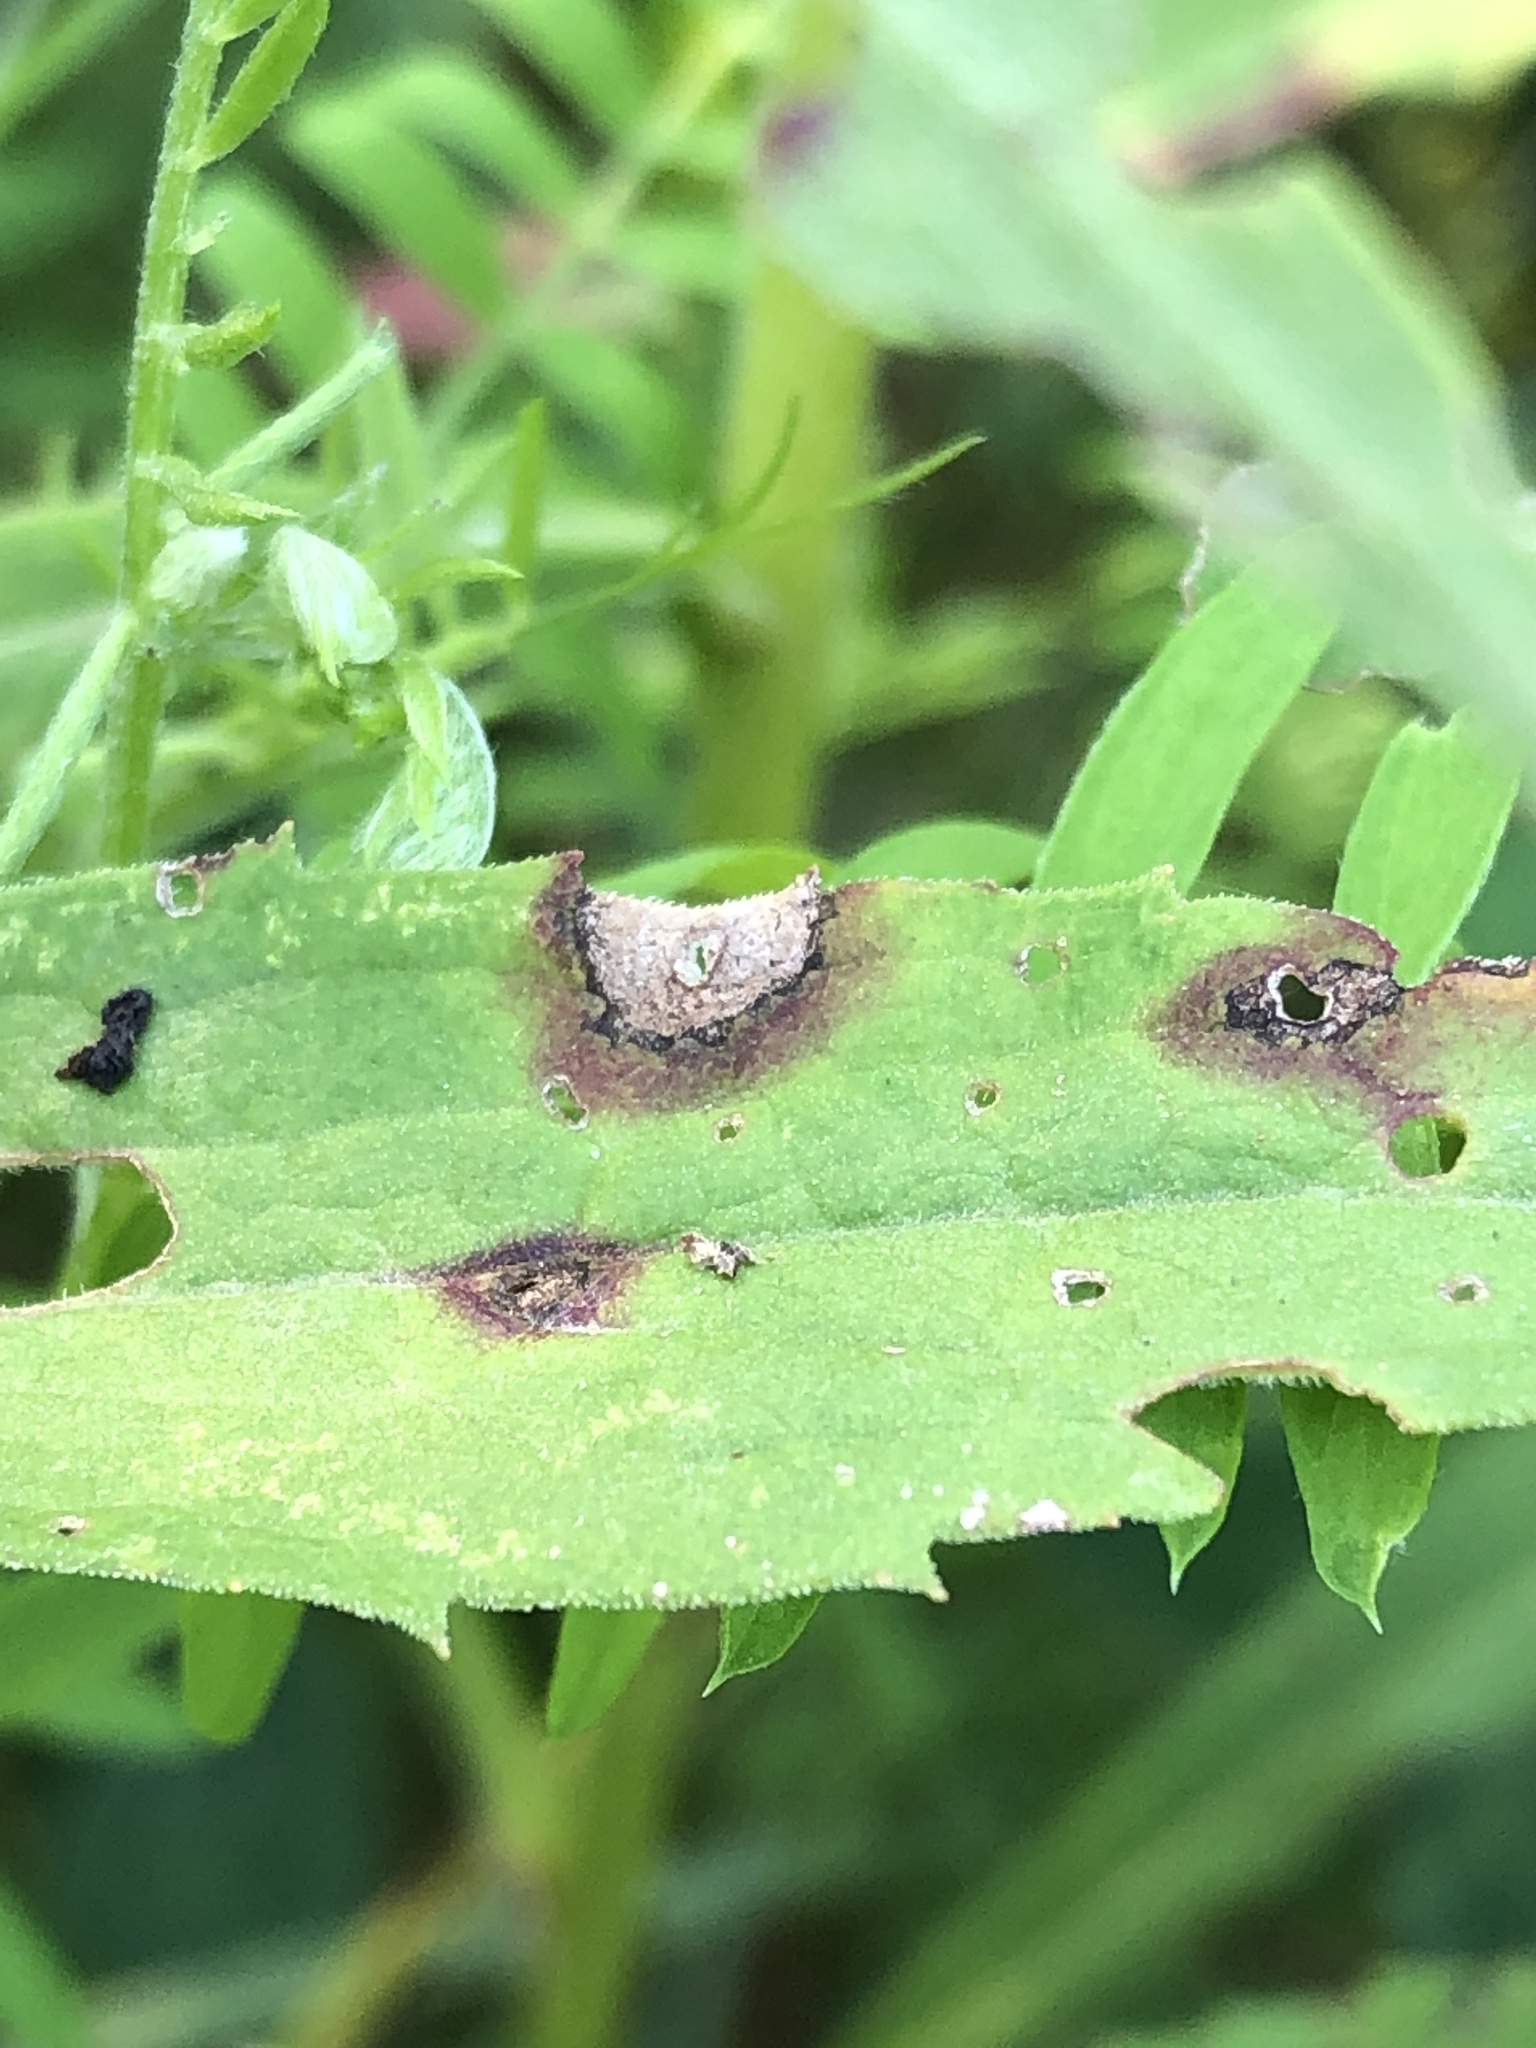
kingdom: Animalia
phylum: Arthropoda
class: Insecta
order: Diptera
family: Cecidomyiidae
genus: Asteromyia
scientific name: Asteromyia carbonifera
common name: Carbonifera goldenrod gall midge
